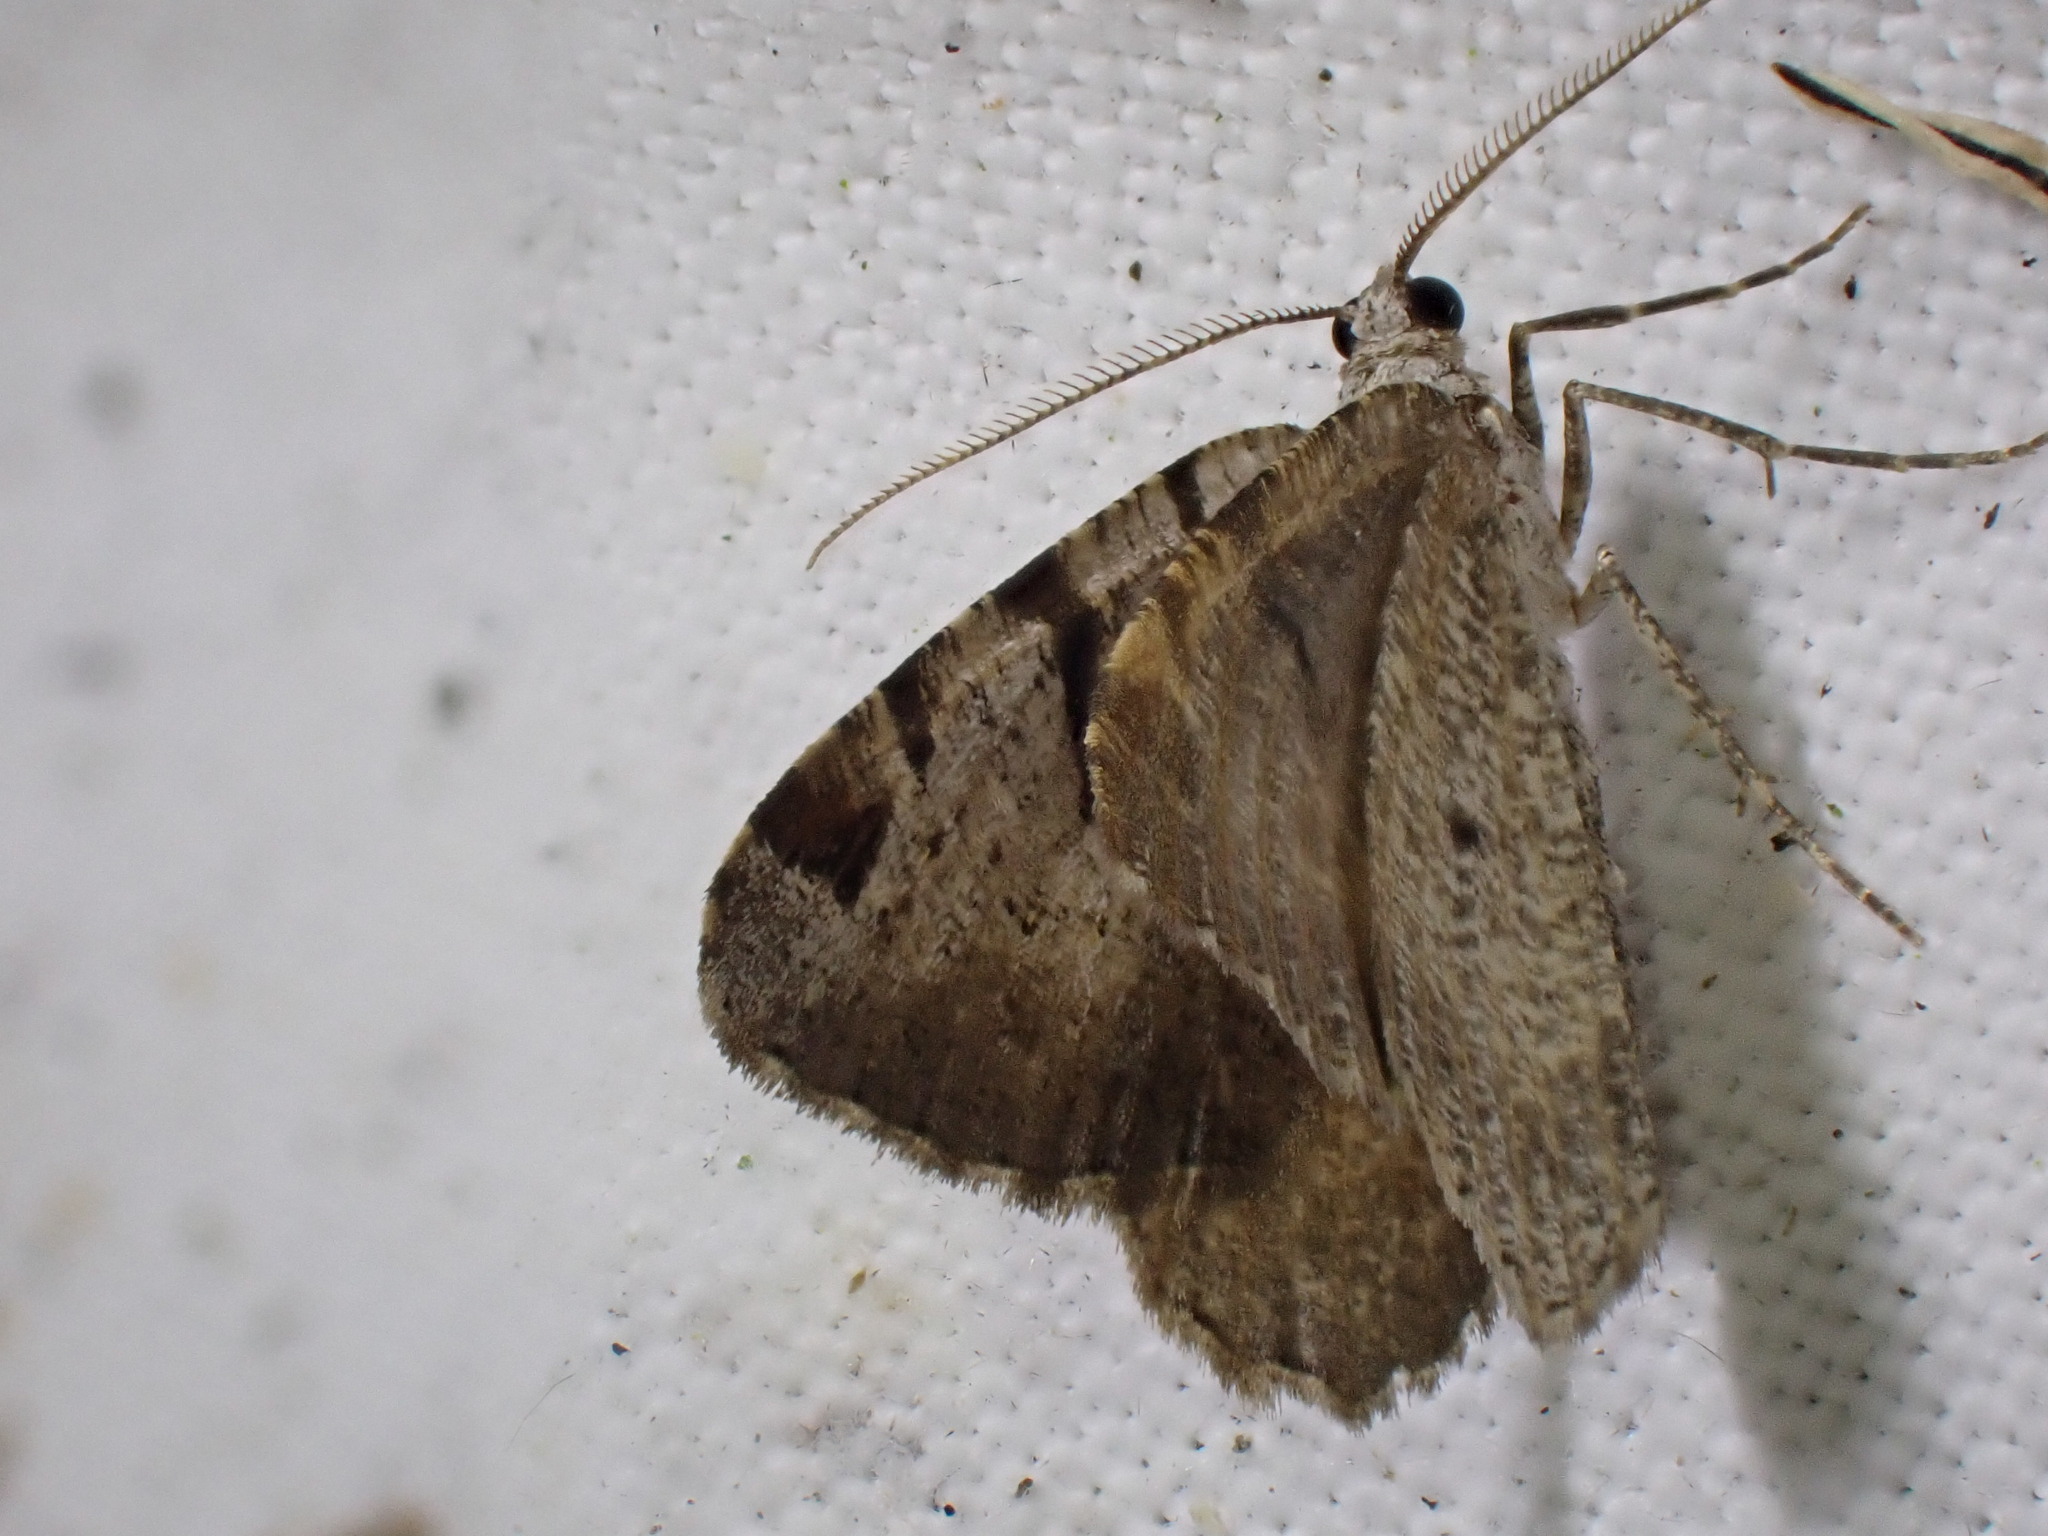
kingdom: Animalia
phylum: Arthropoda
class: Insecta
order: Lepidoptera
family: Geometridae
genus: Macaria
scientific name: Macaria wauaria
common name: V-moth
